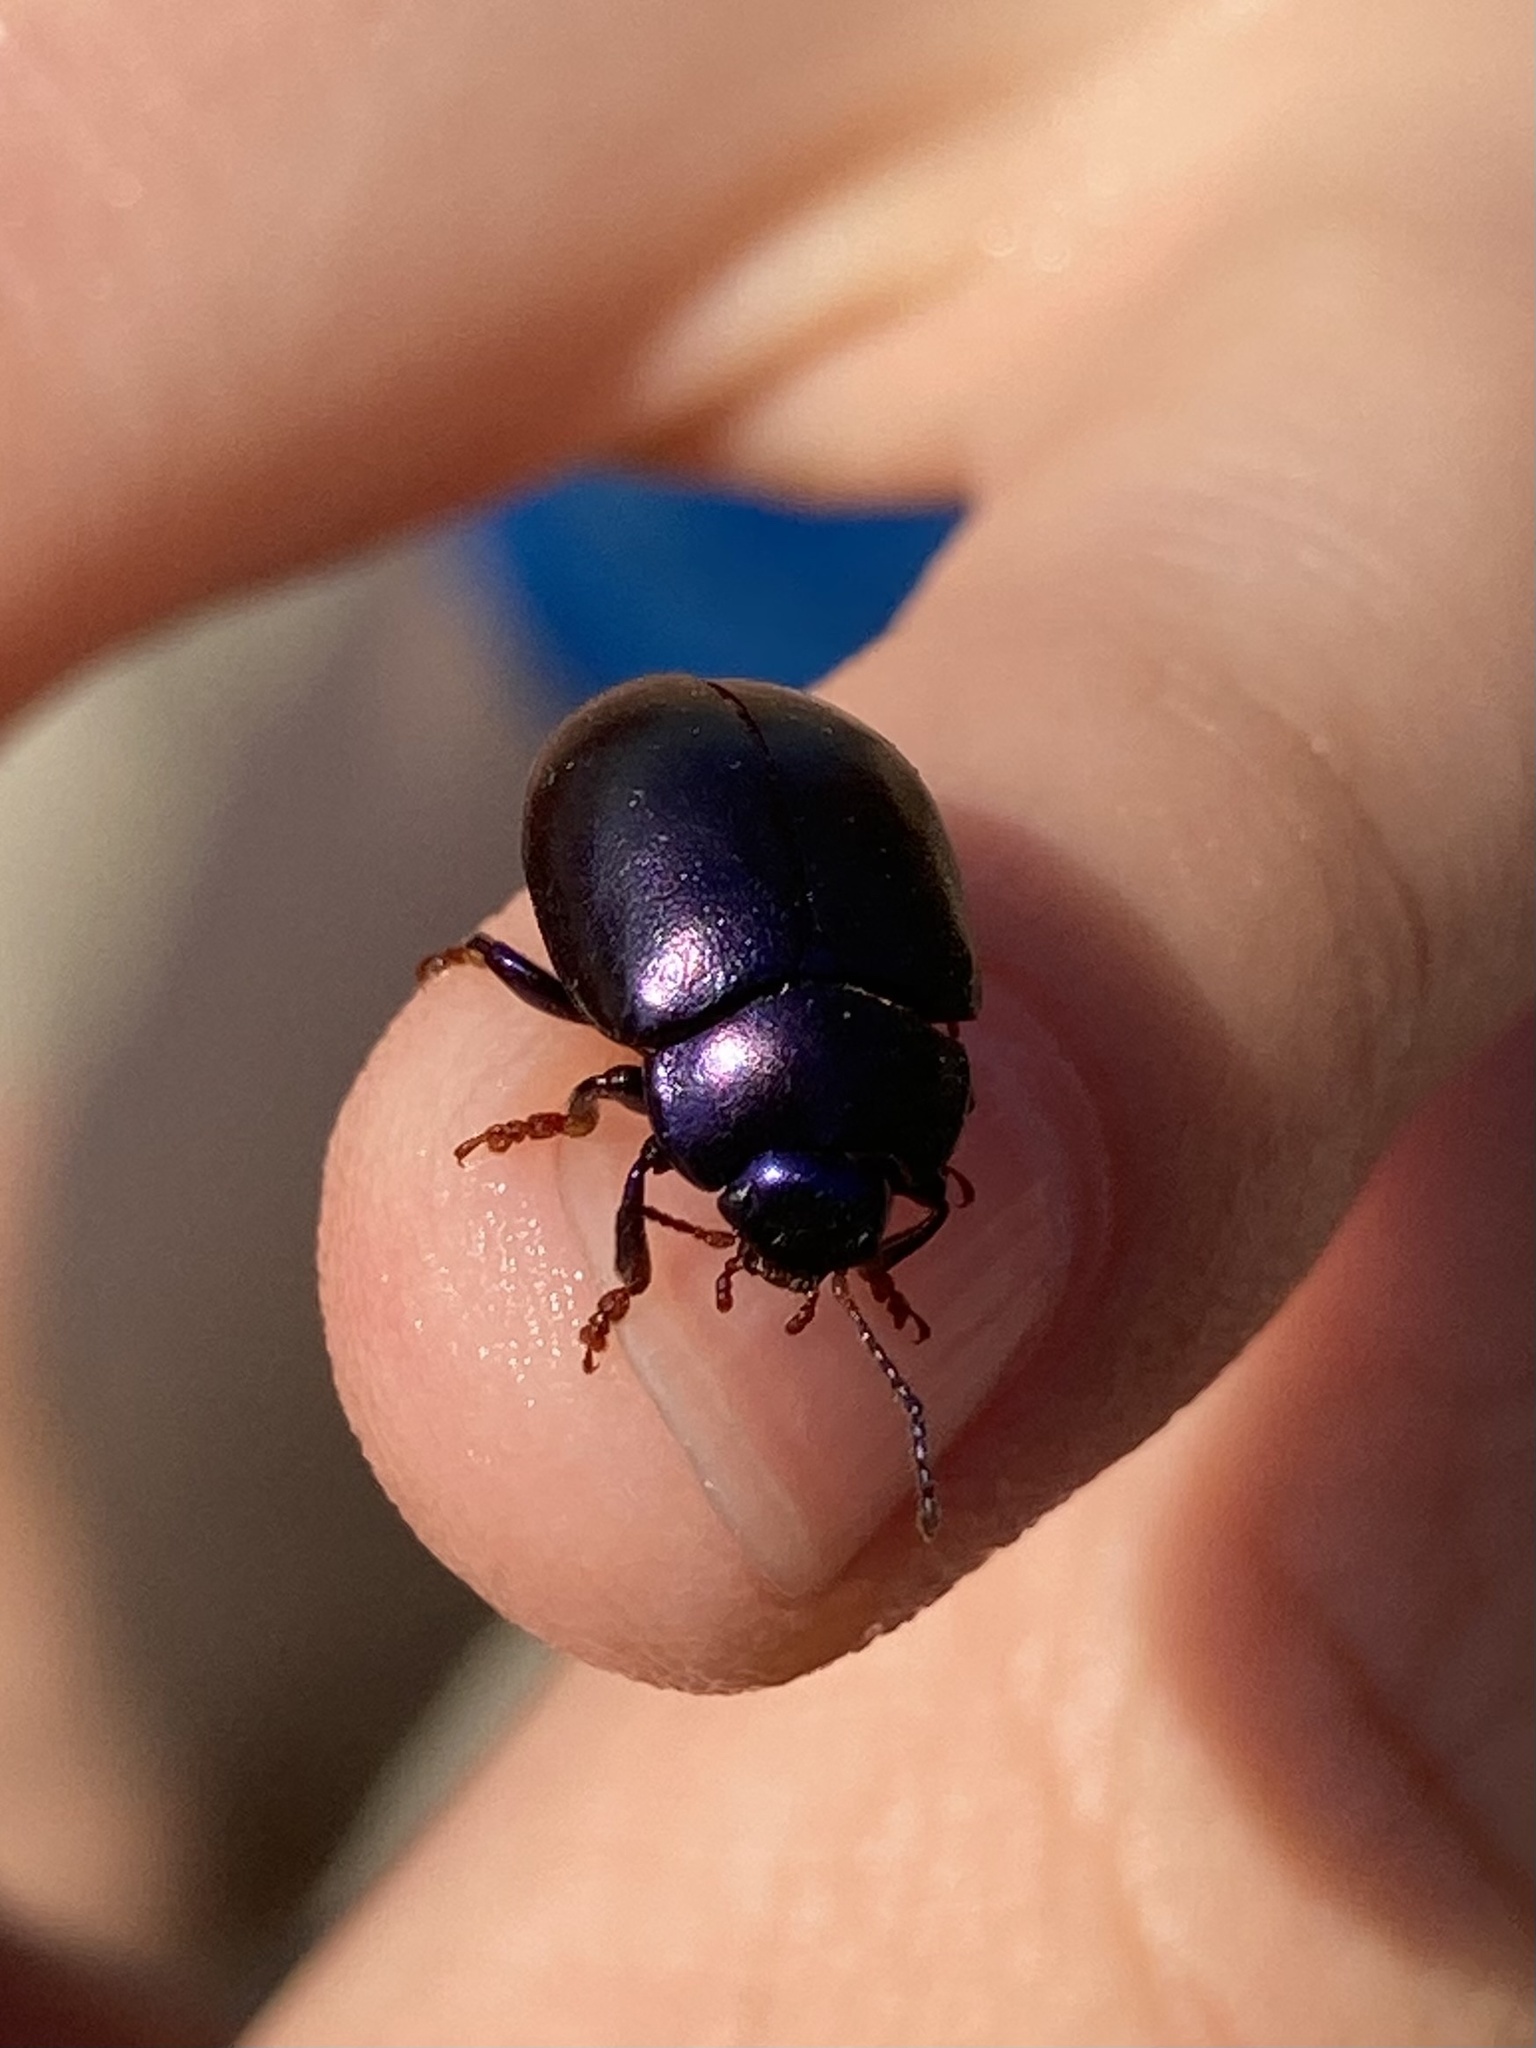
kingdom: Animalia
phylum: Arthropoda
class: Insecta
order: Coleoptera
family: Chrysomelidae
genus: Chrysolina
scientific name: Chrysolina sturmi
